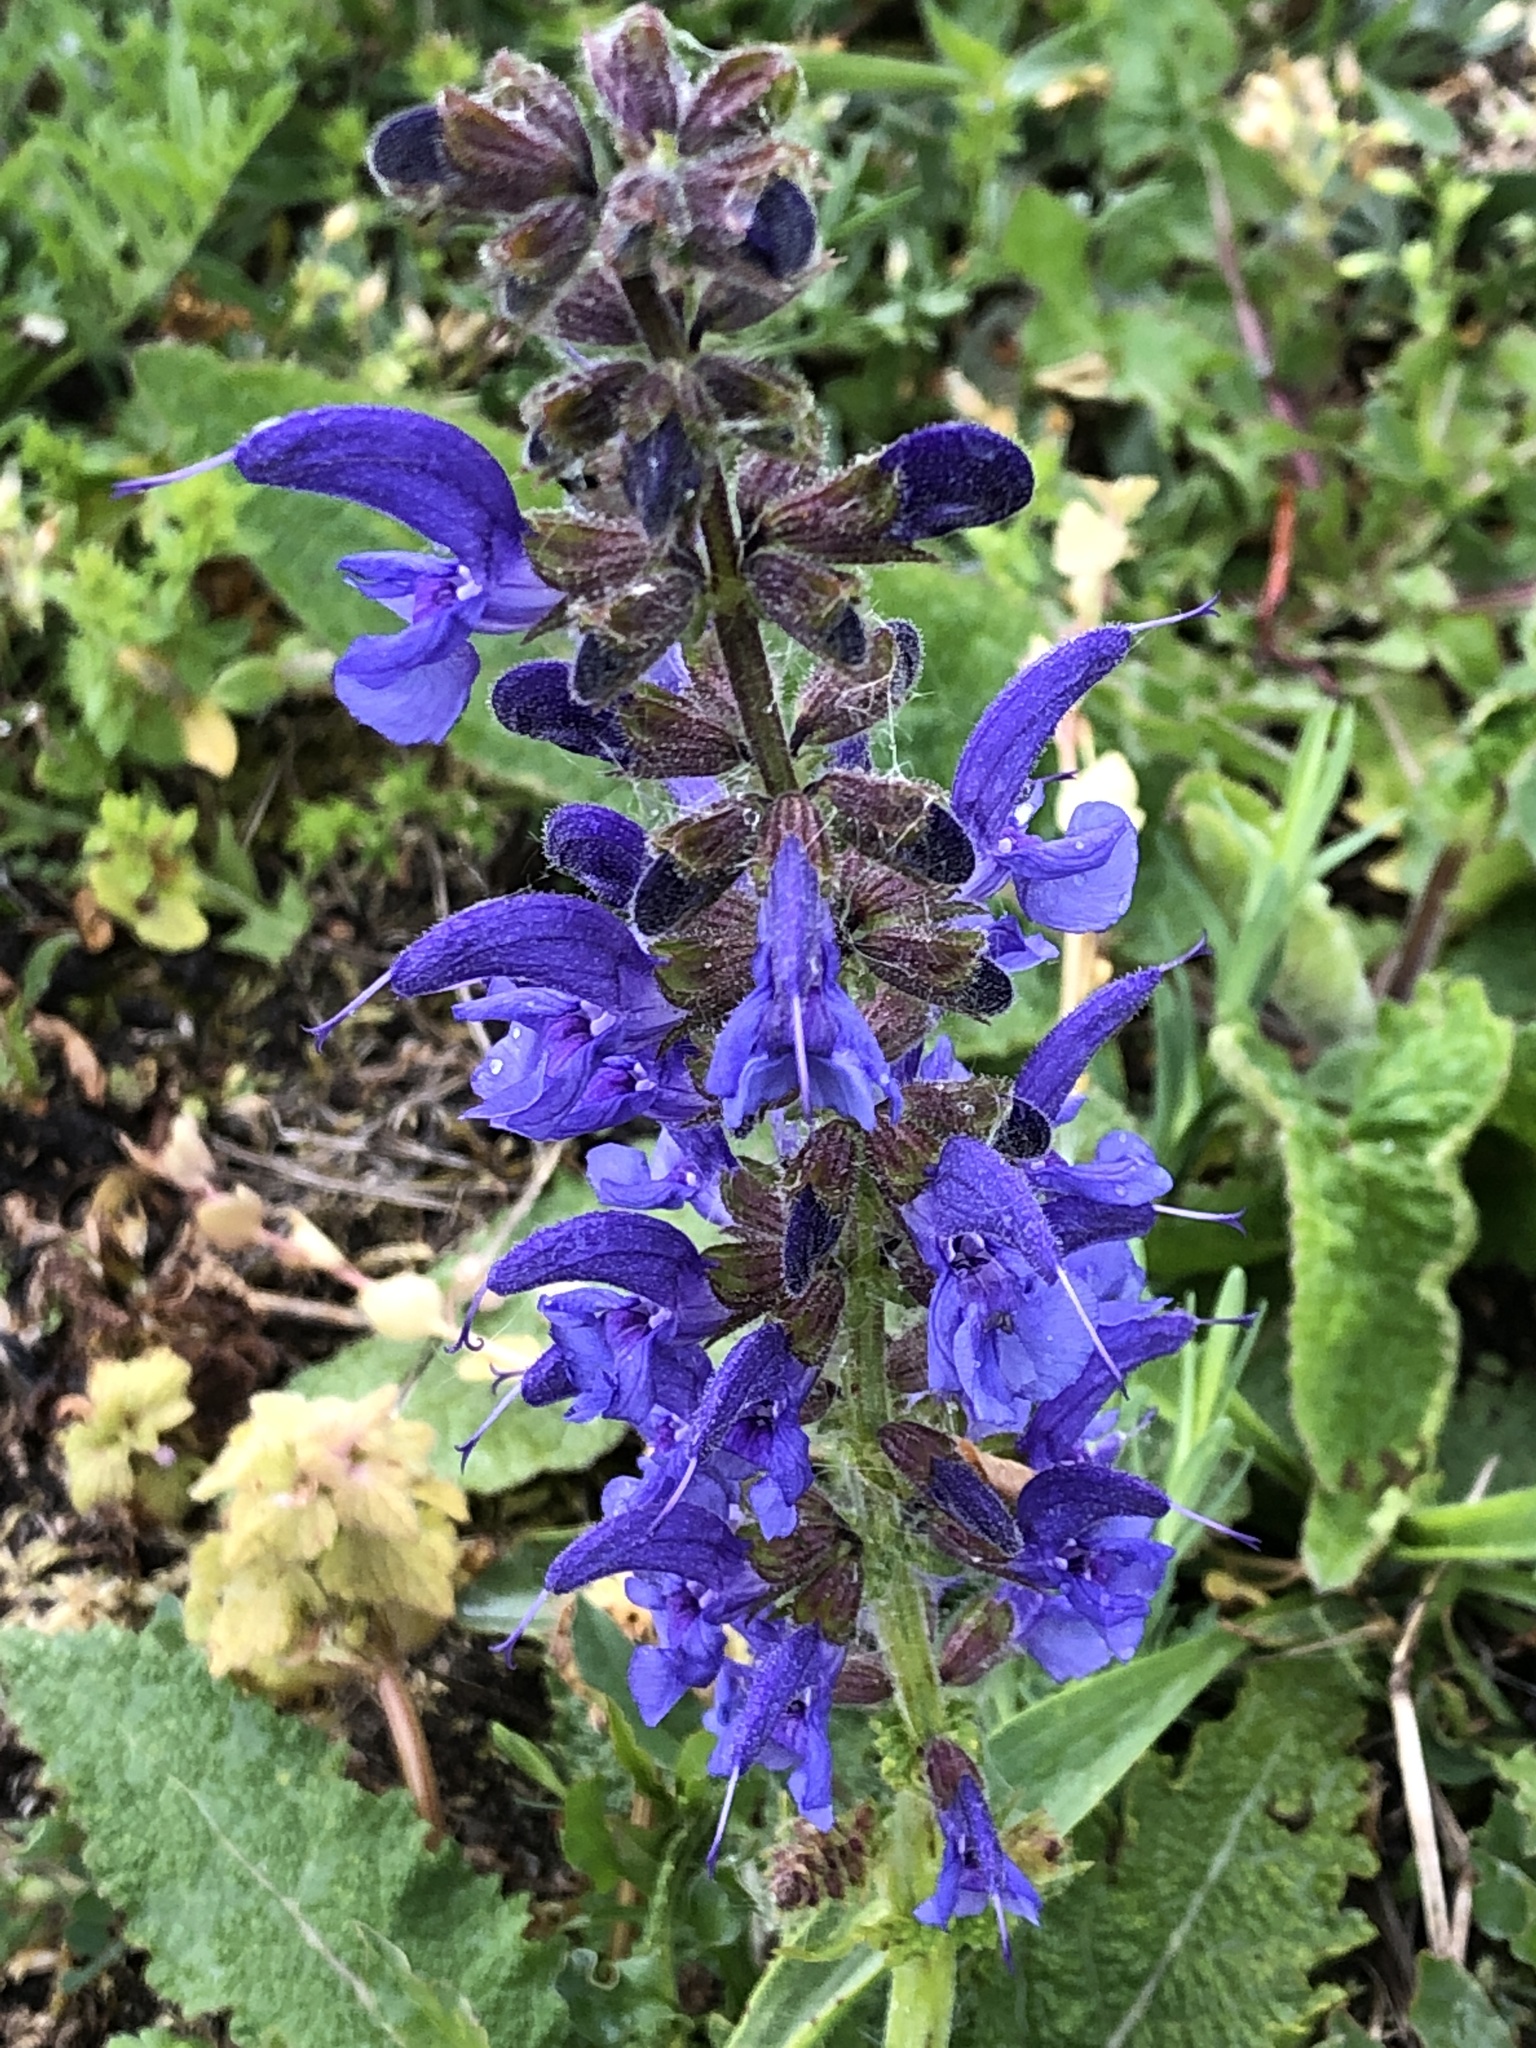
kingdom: Plantae
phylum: Tracheophyta
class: Magnoliopsida
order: Lamiales
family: Lamiaceae
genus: Salvia
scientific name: Salvia pratensis
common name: Meadow sage
